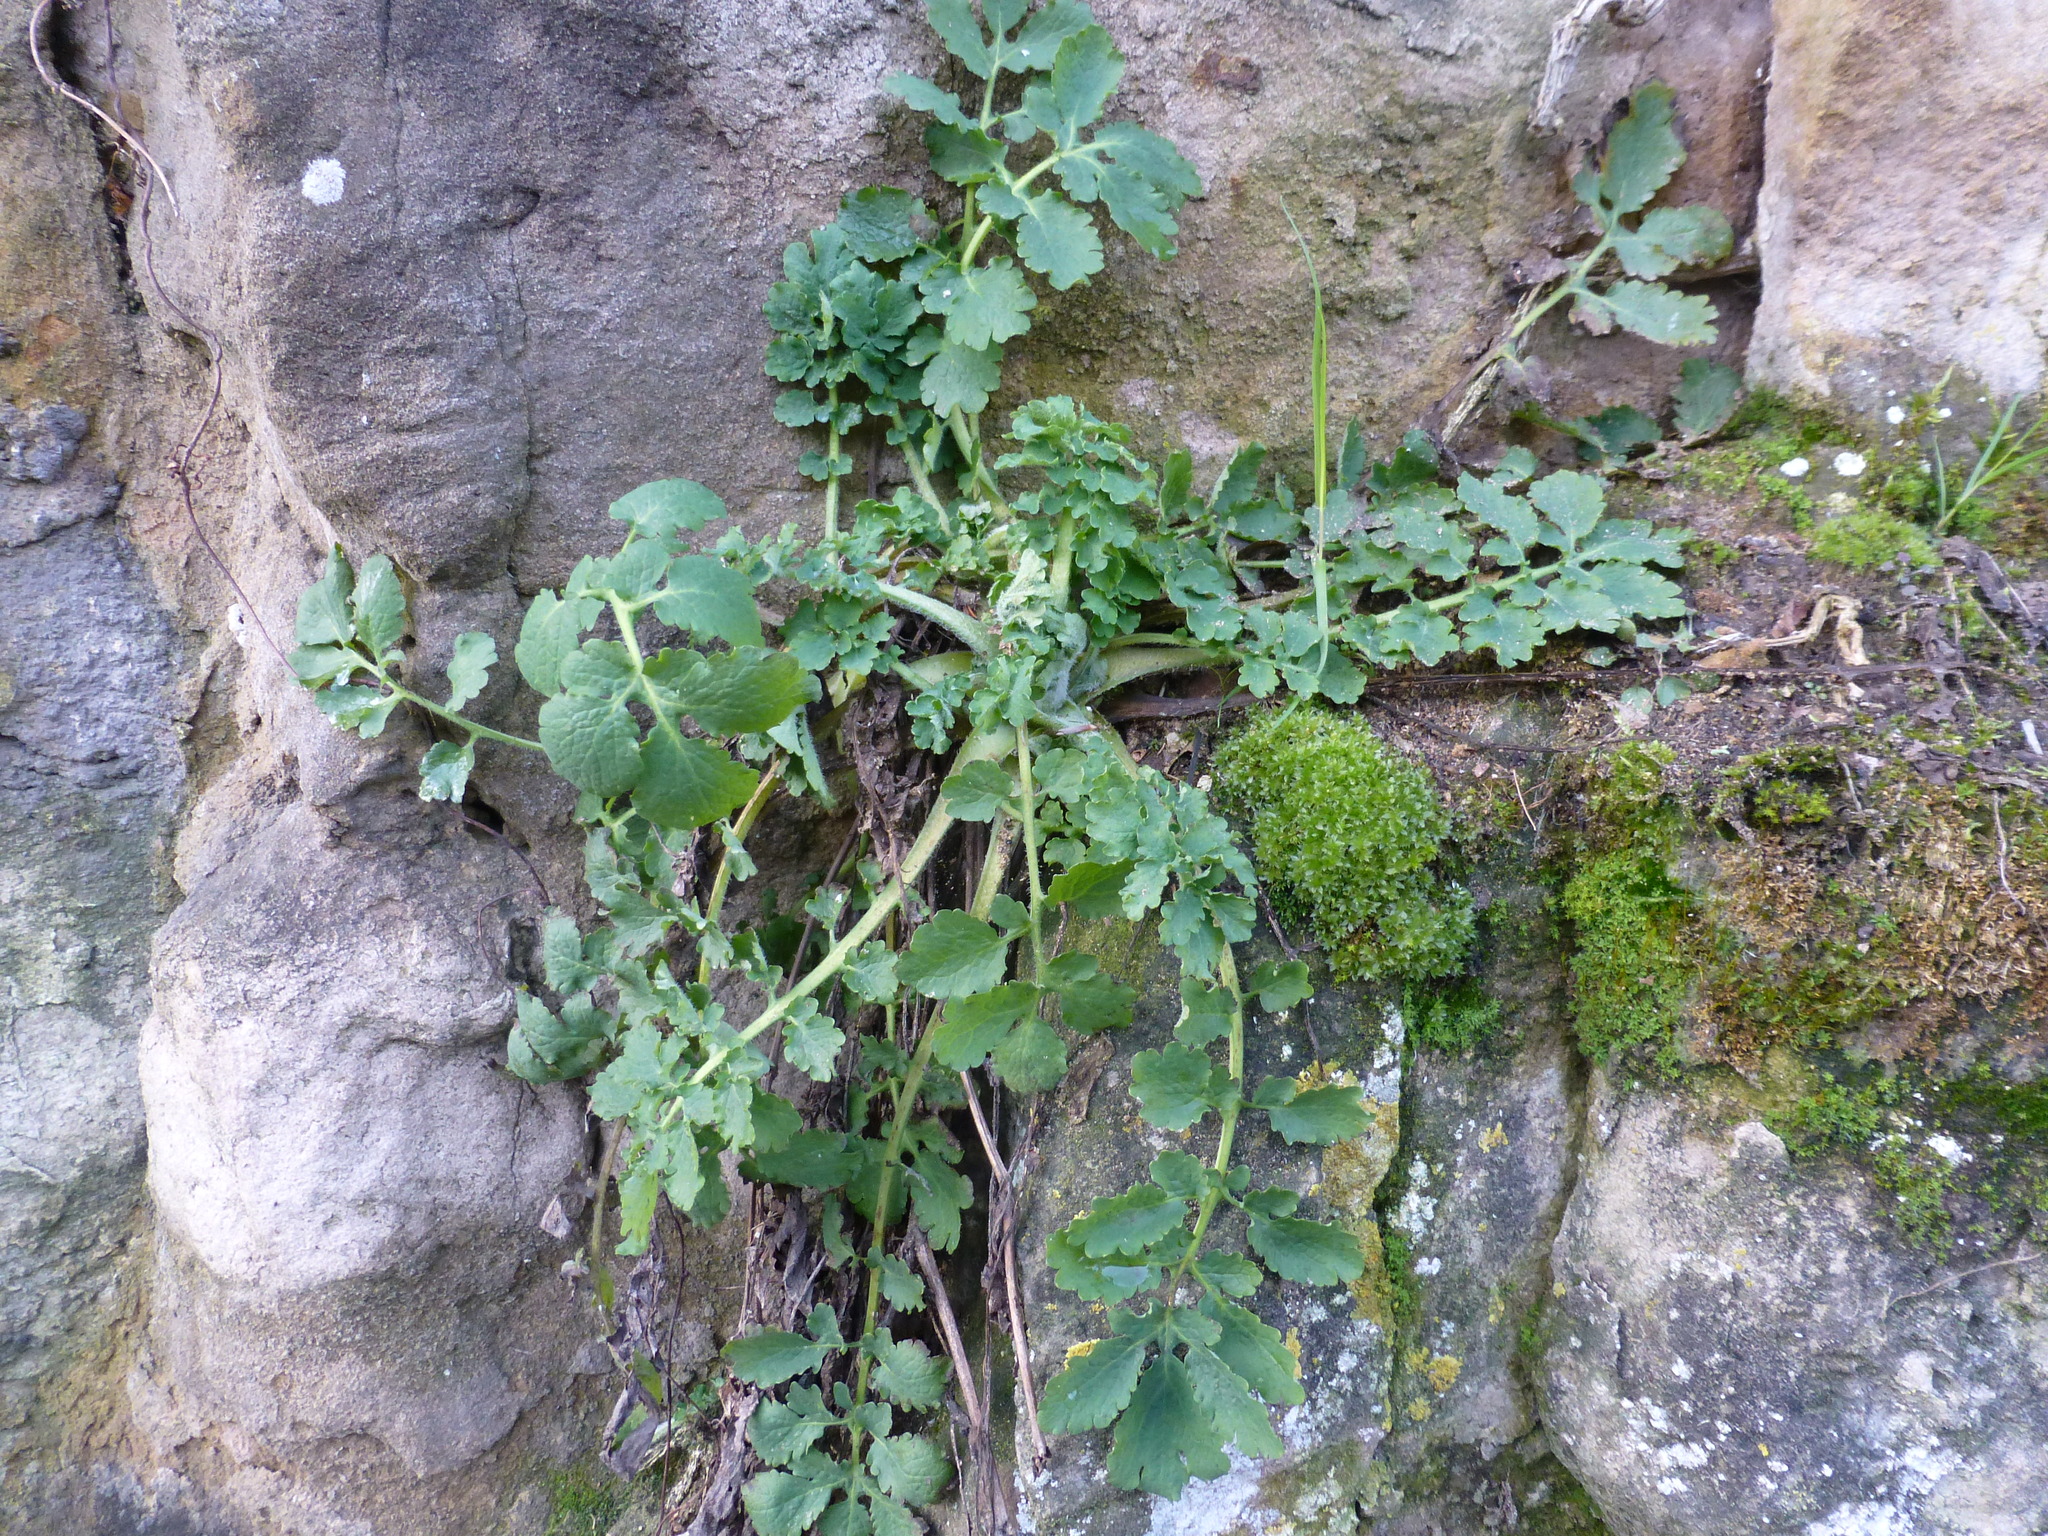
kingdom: Plantae
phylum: Tracheophyta
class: Magnoliopsida
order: Ranunculales
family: Papaveraceae
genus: Chelidonium
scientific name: Chelidonium majus
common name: Greater celandine
